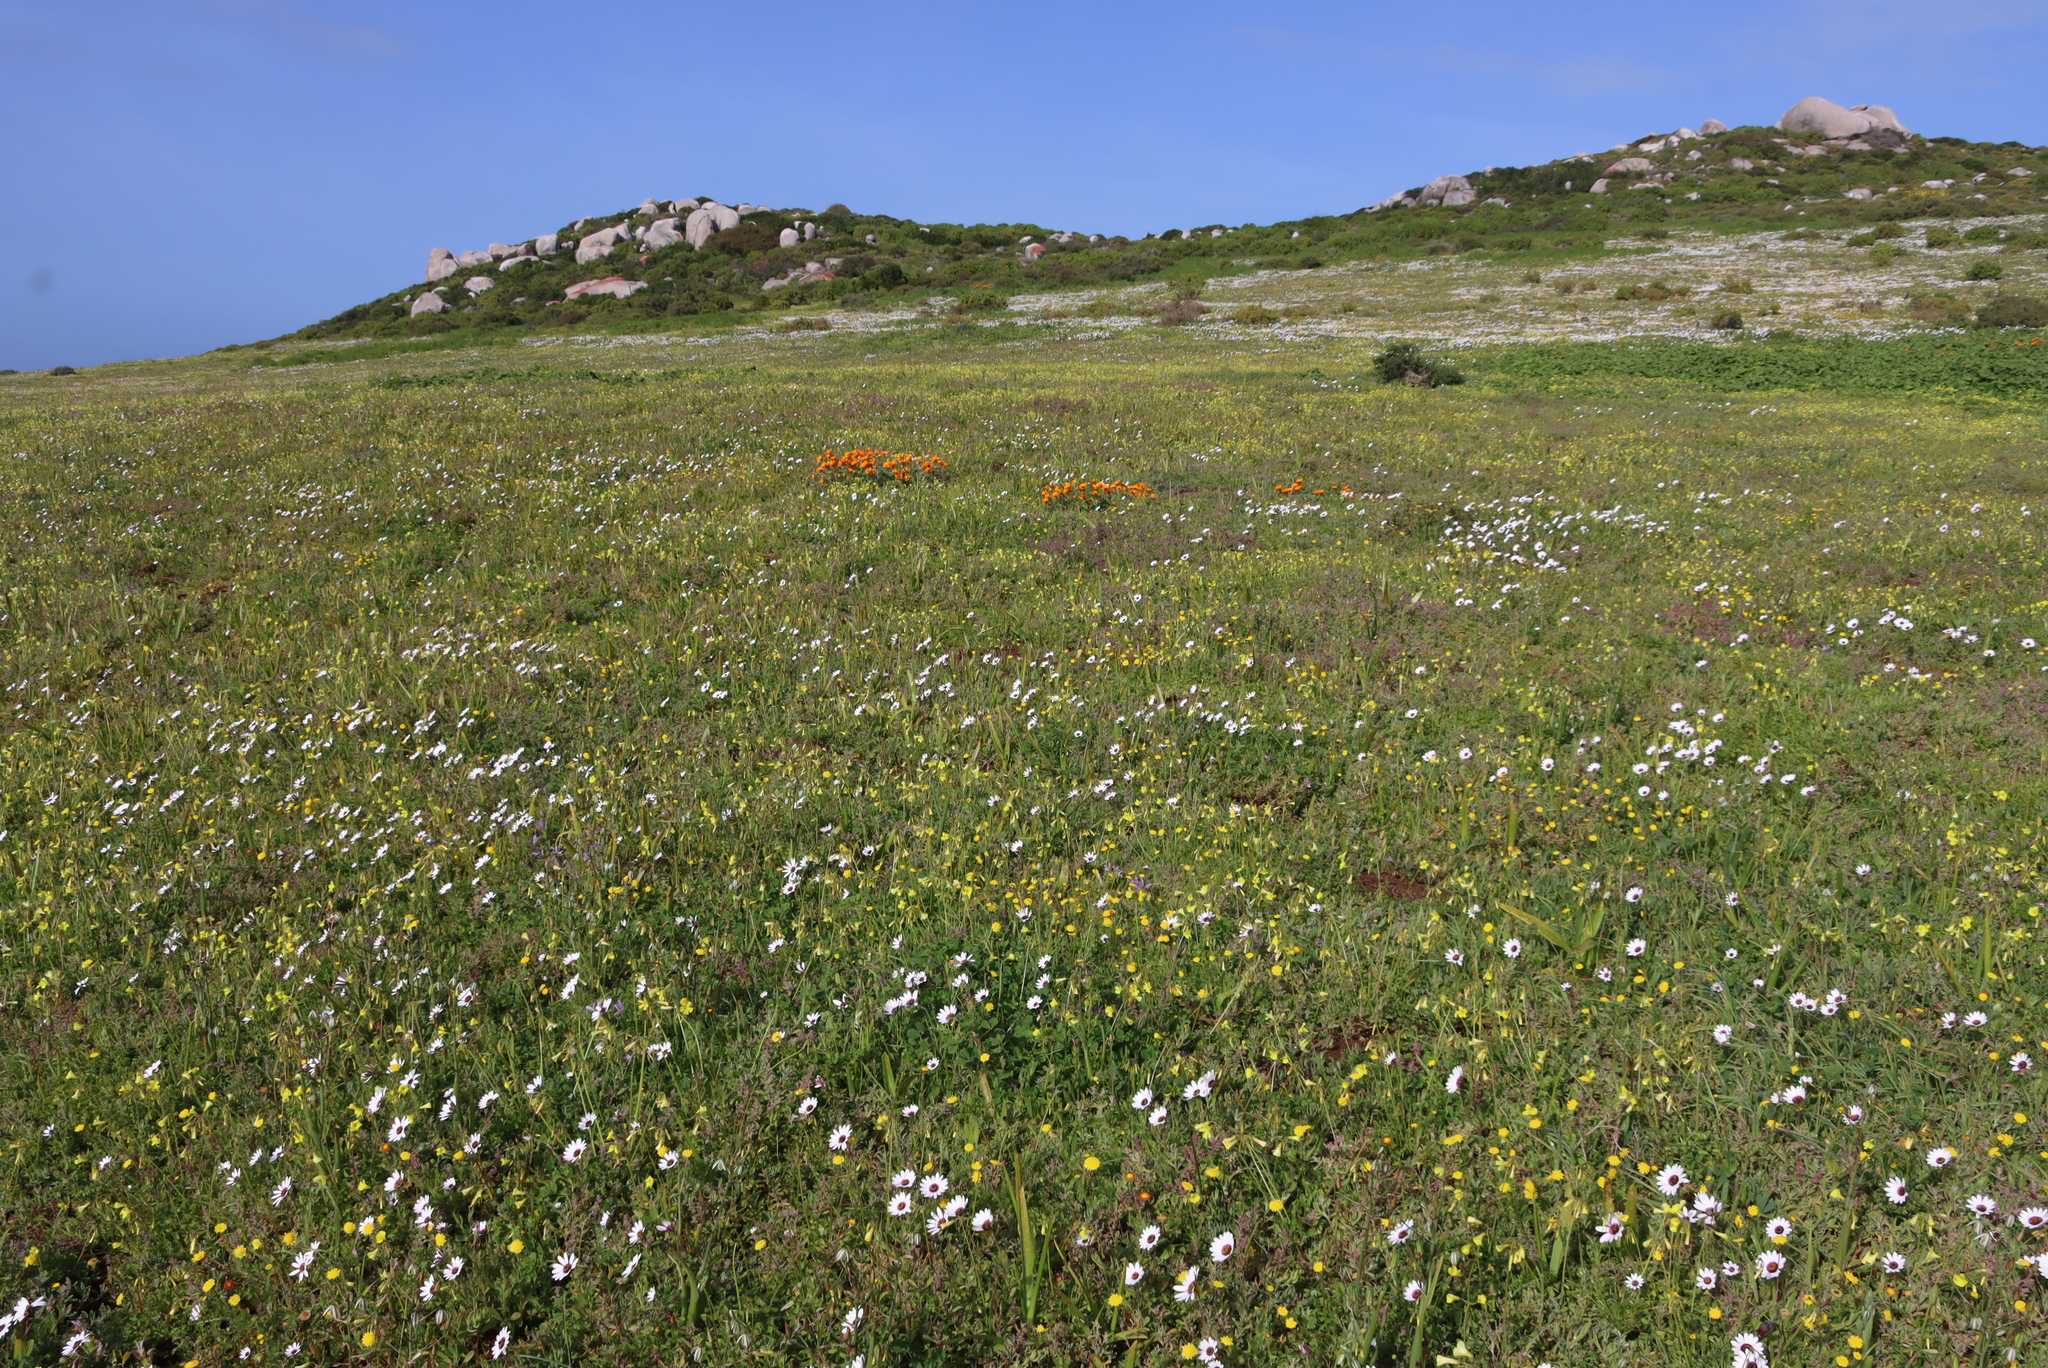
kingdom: Plantae
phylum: Tracheophyta
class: Magnoliopsida
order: Oxalidales
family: Oxalidaceae
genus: Oxalis
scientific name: Oxalis pes-caprae
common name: Bermuda-buttercup
